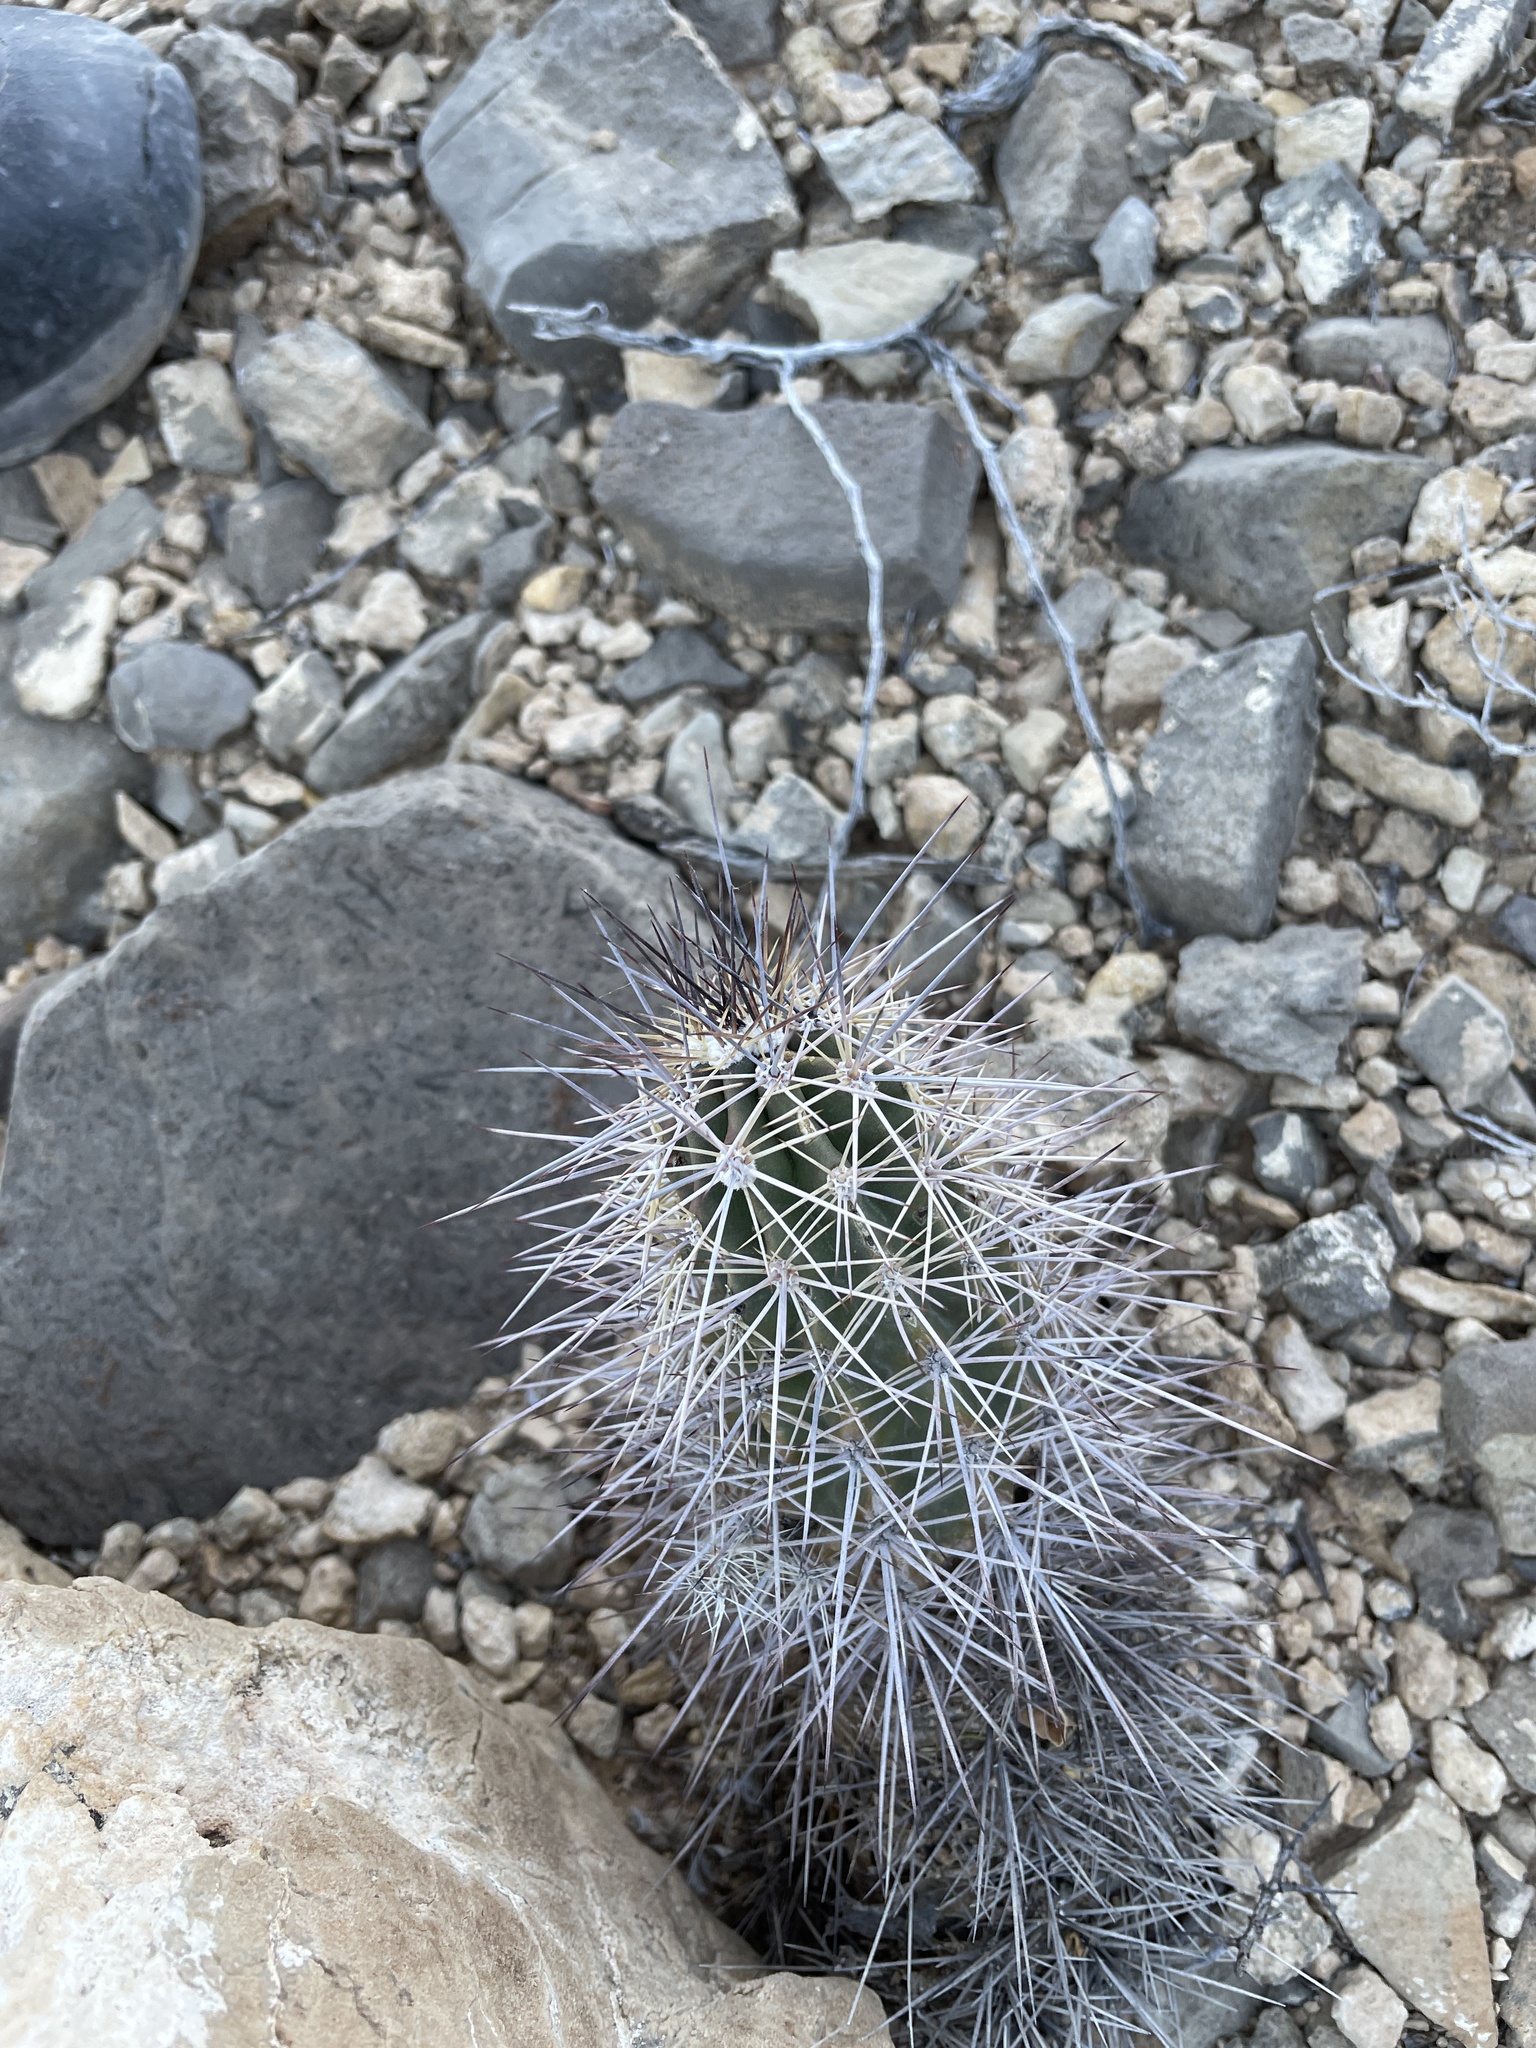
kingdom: Plantae
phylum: Tracheophyta
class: Magnoliopsida
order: Caryophyllales
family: Cactaceae
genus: Echinocereus
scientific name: Echinocereus coccineus
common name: Scarlet hedgehog cactus
